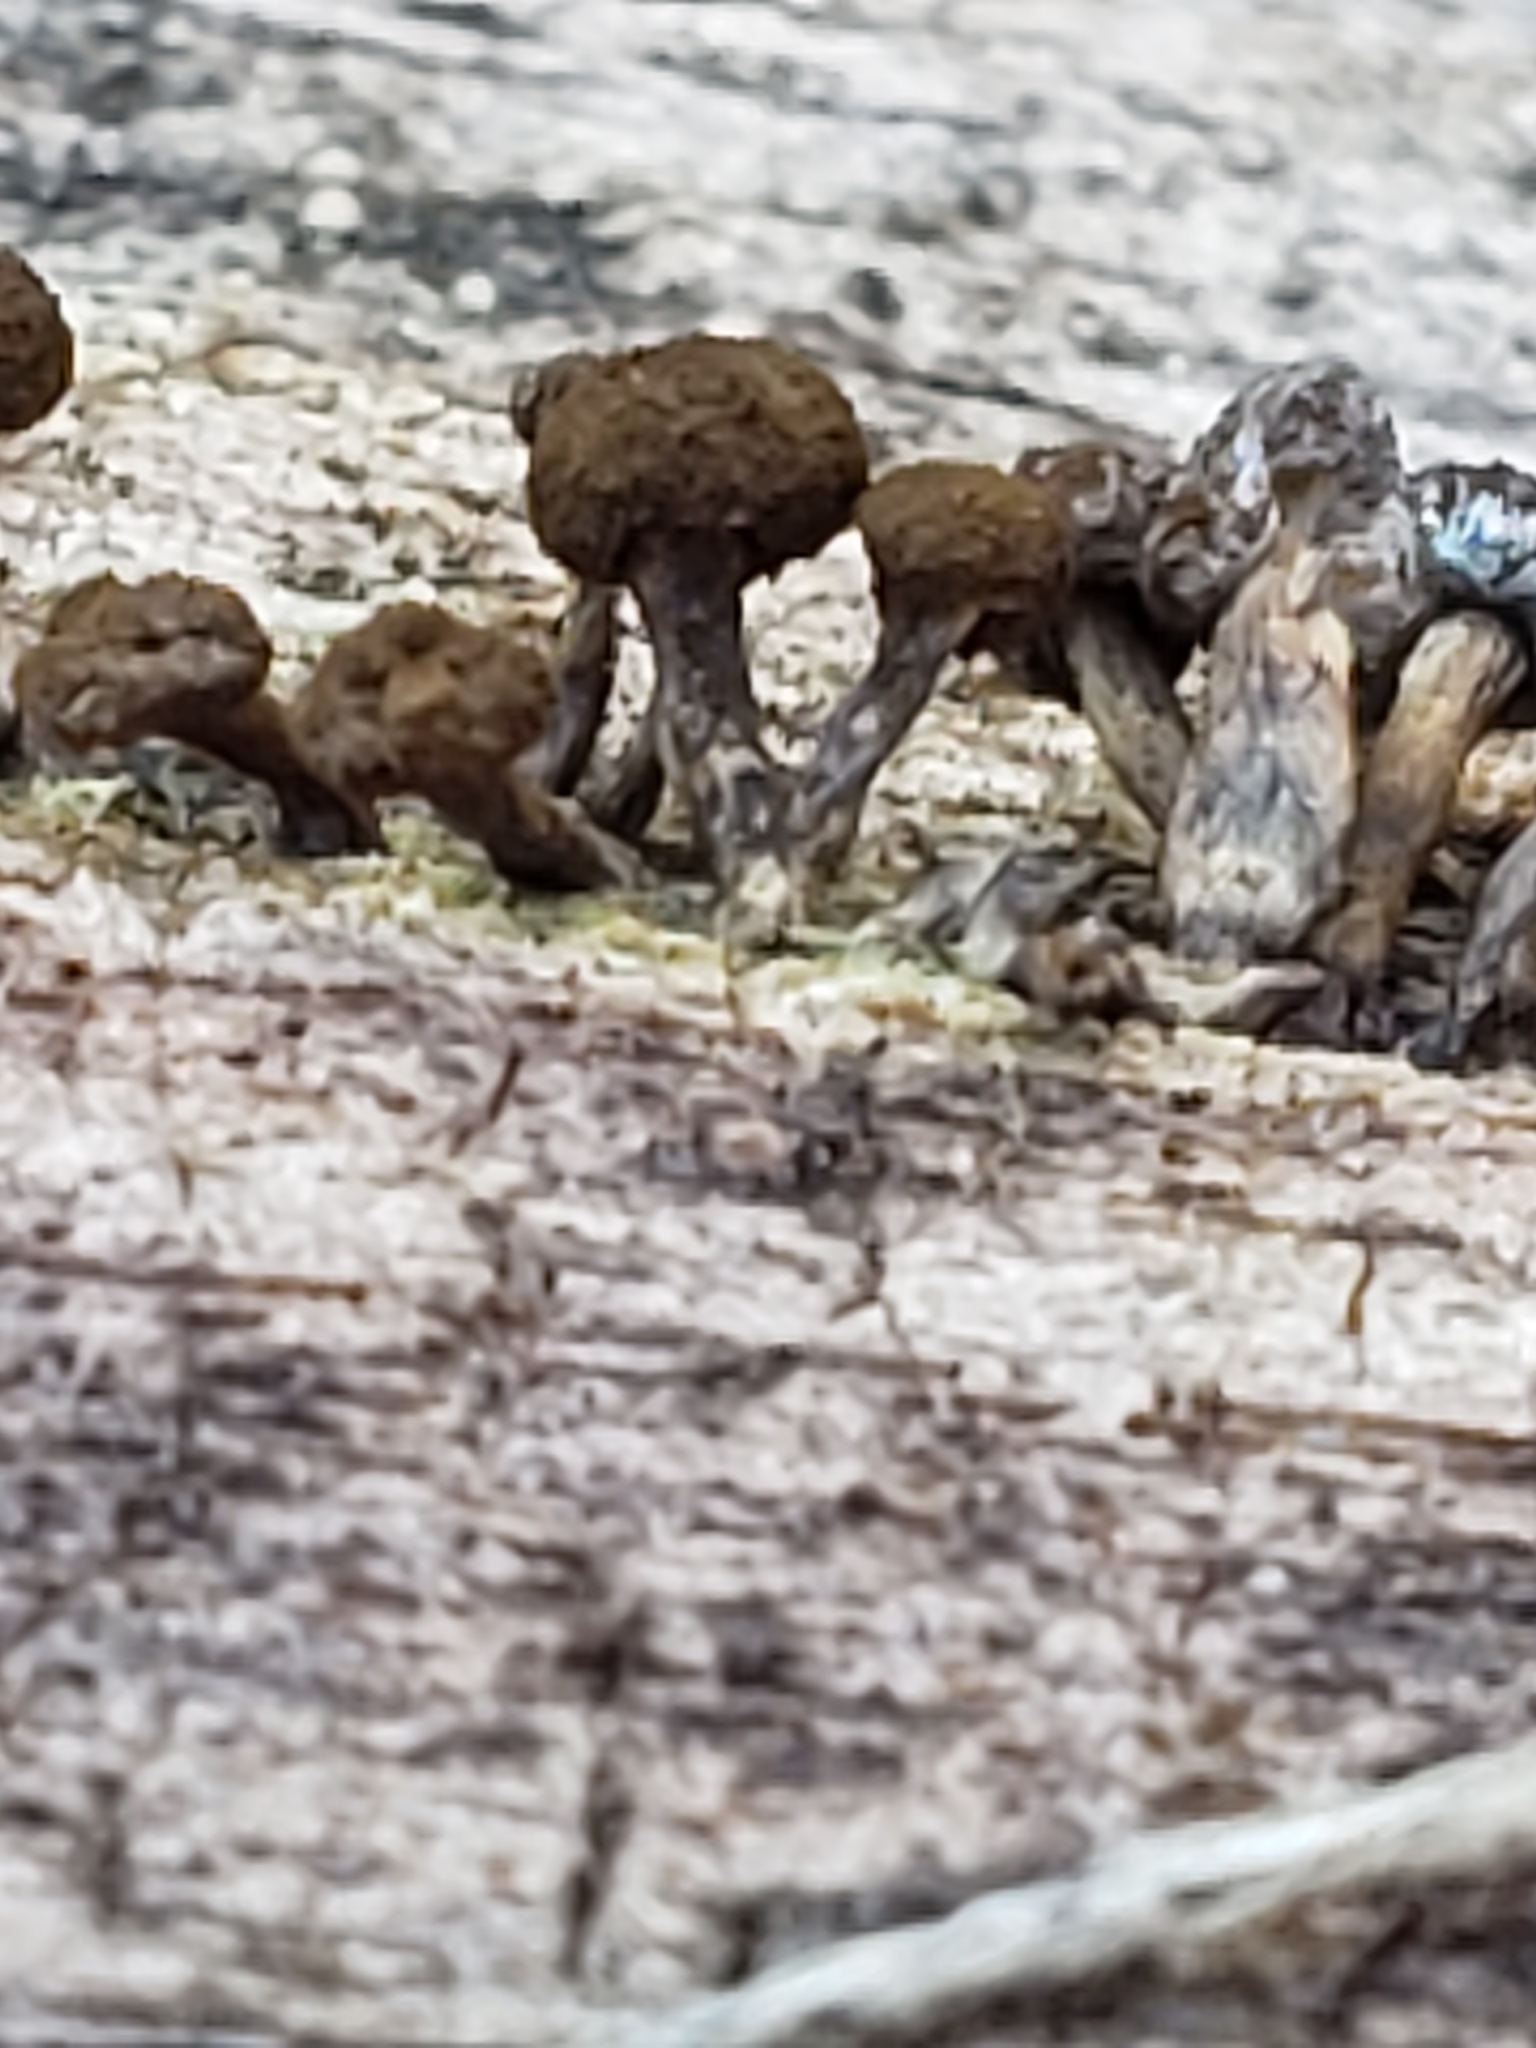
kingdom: Fungi
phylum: Basidiomycota
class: Atractiellomycetes
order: Atractiellales
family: Phleogenaceae
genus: Phleogena
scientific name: Phleogena faginea
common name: Fenugreek stalkball
